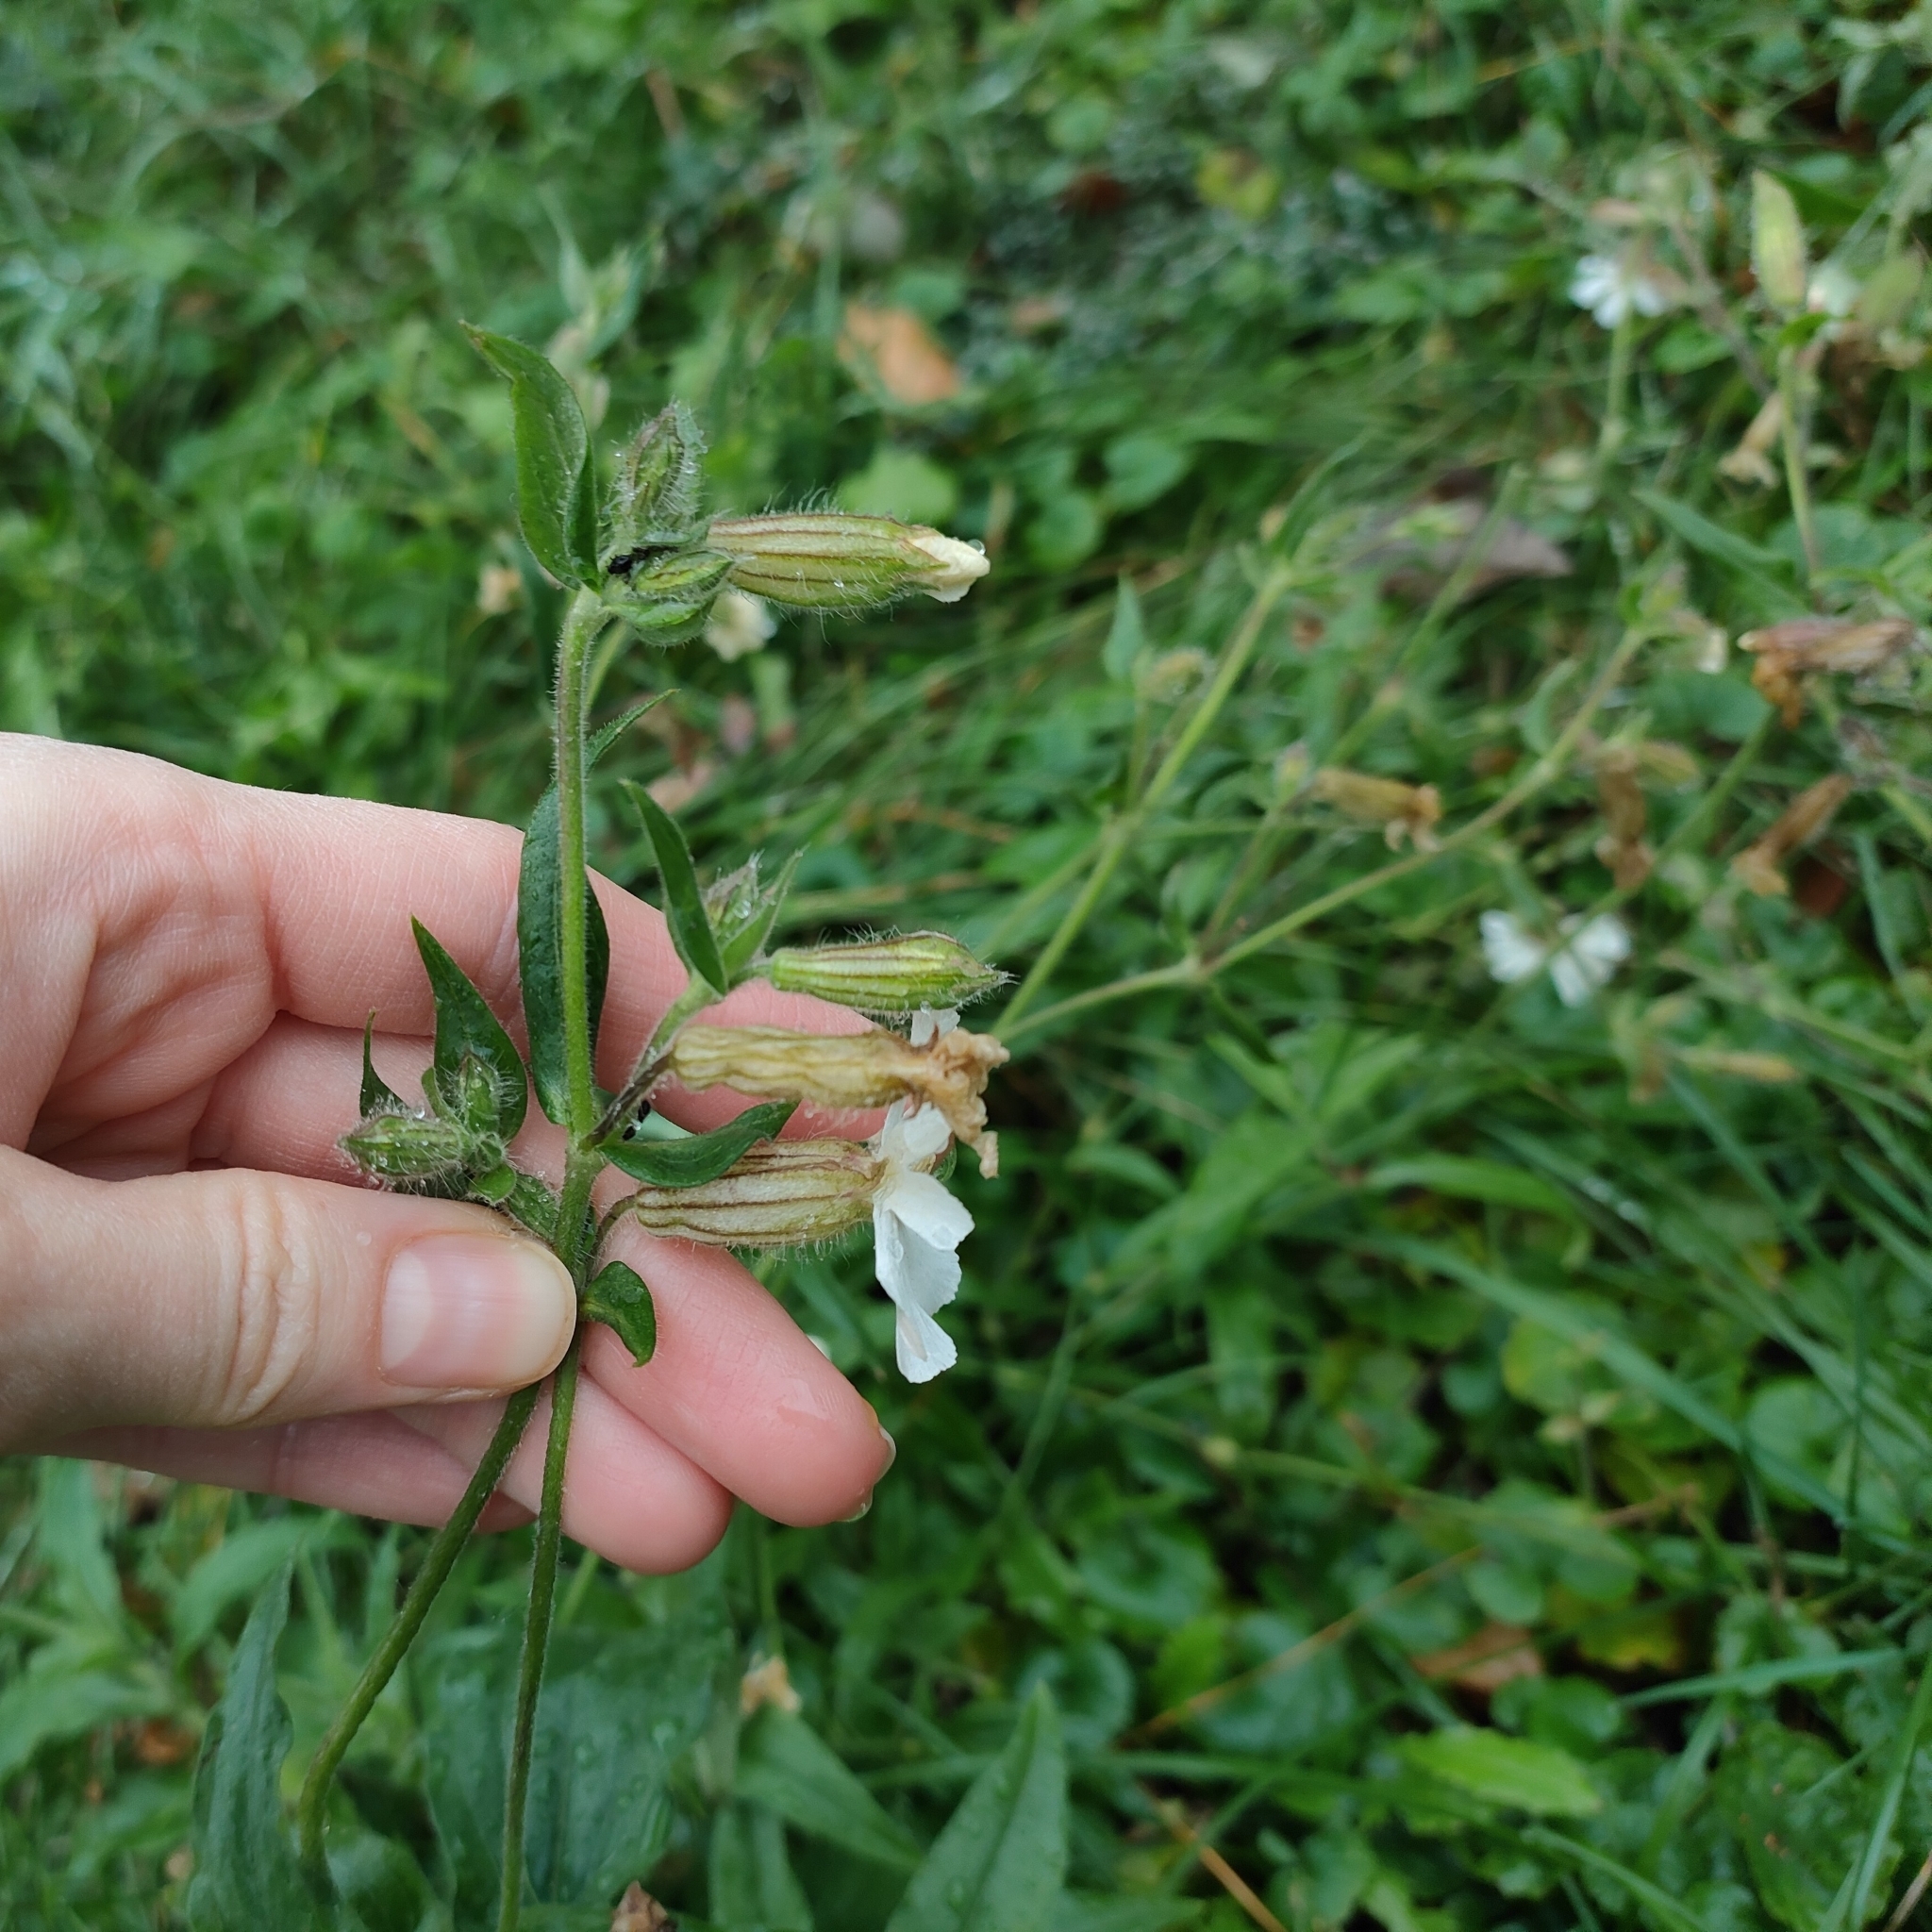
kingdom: Plantae
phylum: Tracheophyta
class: Magnoliopsida
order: Caryophyllales
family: Caryophyllaceae
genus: Silene
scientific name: Silene latifolia
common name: White campion
